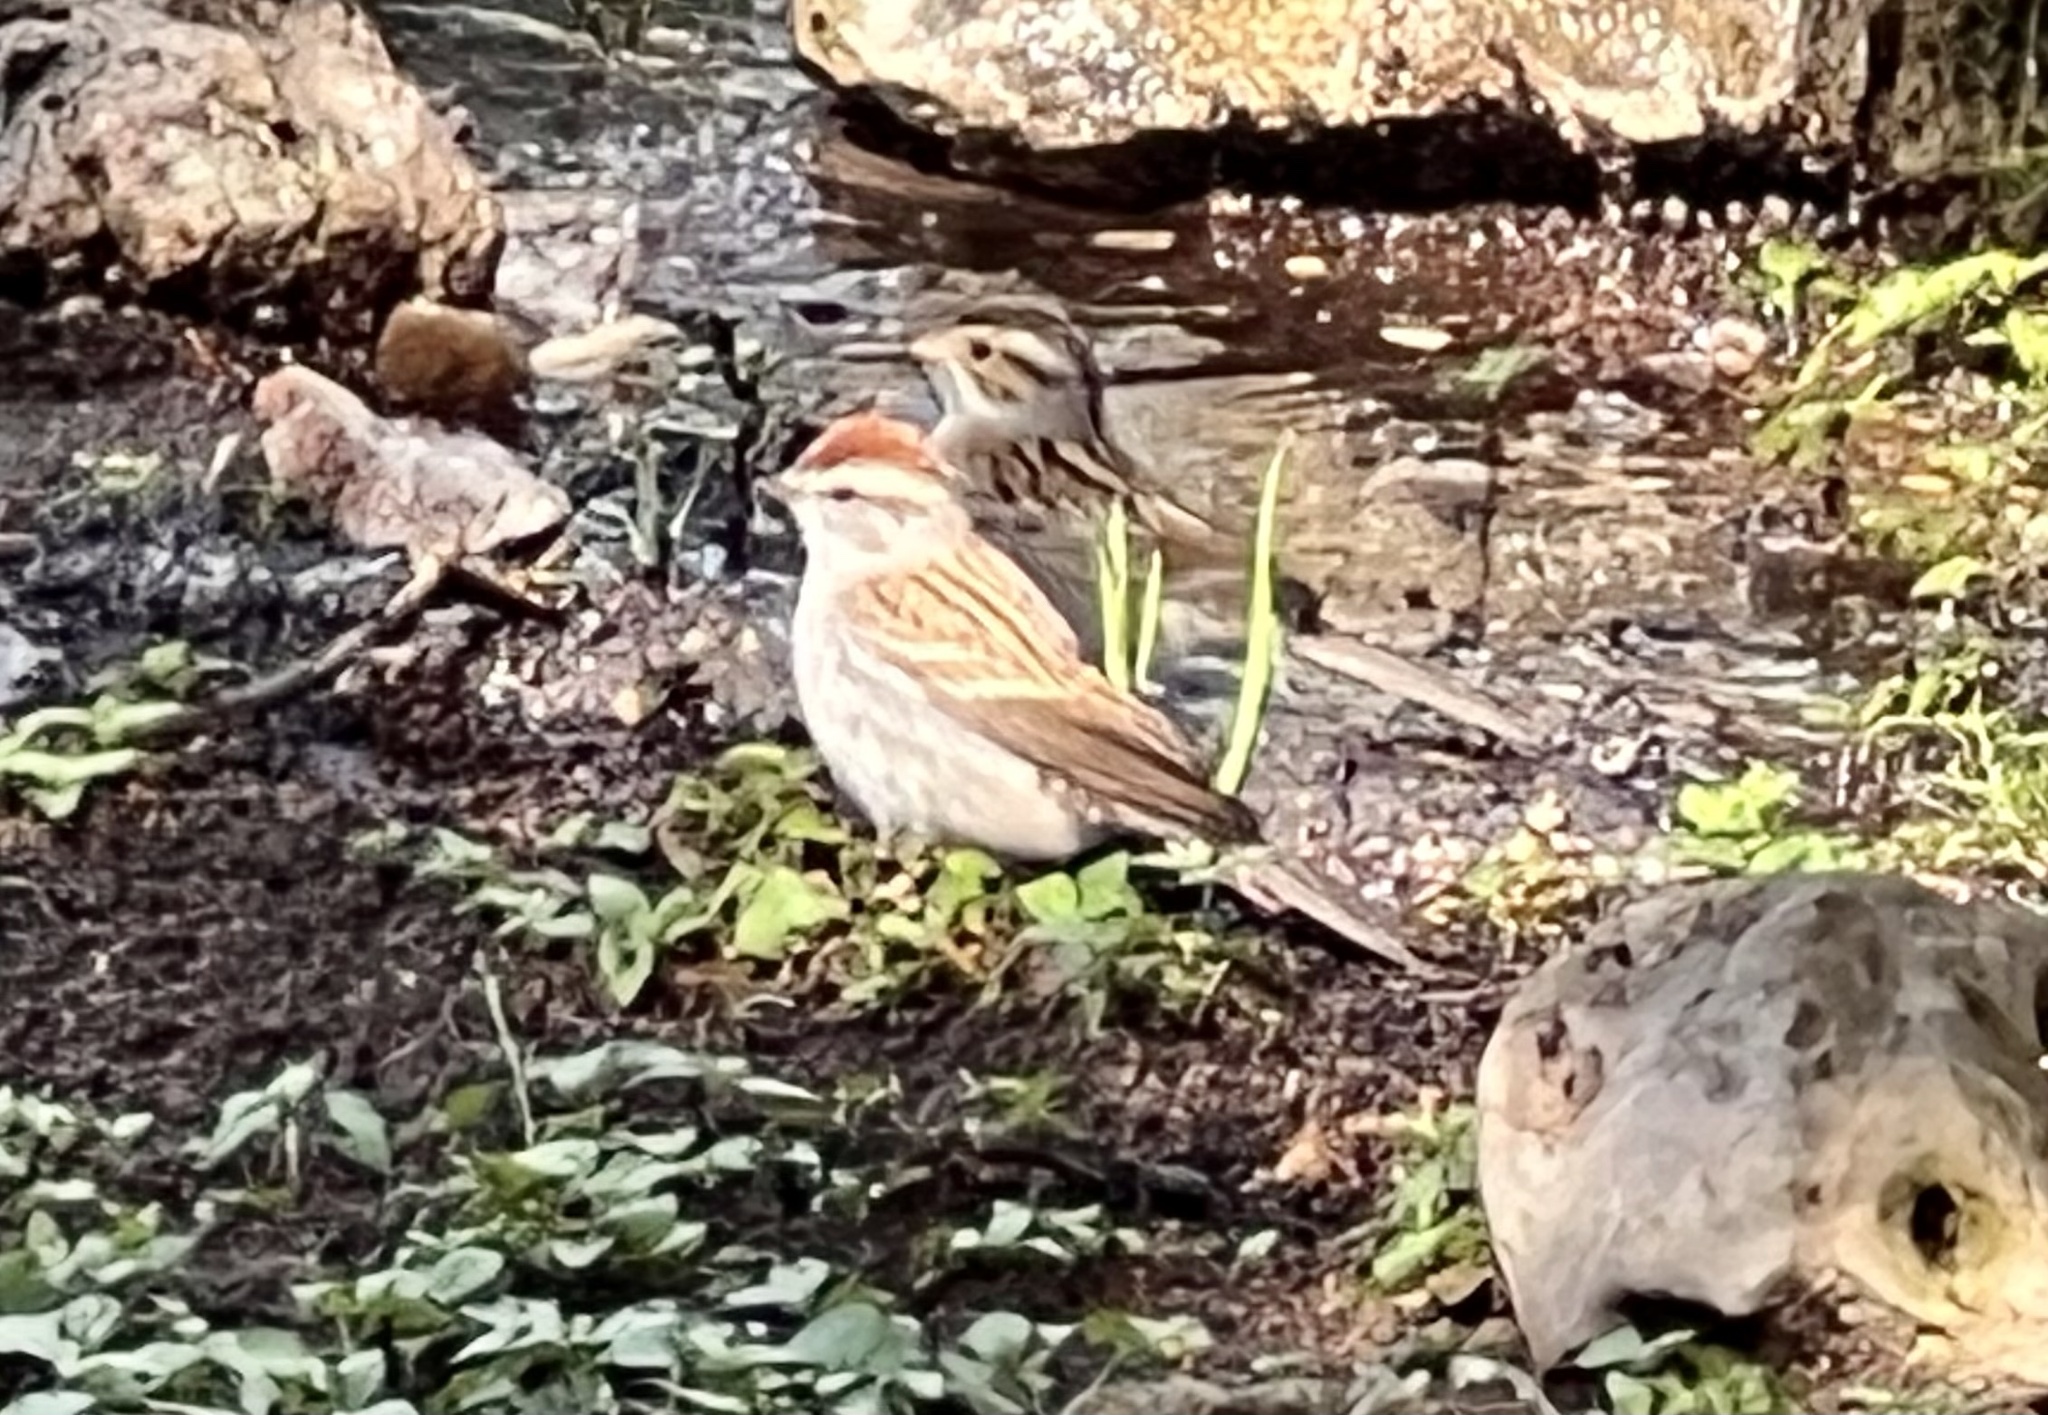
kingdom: Animalia
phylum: Chordata
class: Aves
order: Passeriformes
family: Passerellidae
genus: Spizella
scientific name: Spizella passerina
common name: Chipping sparrow
